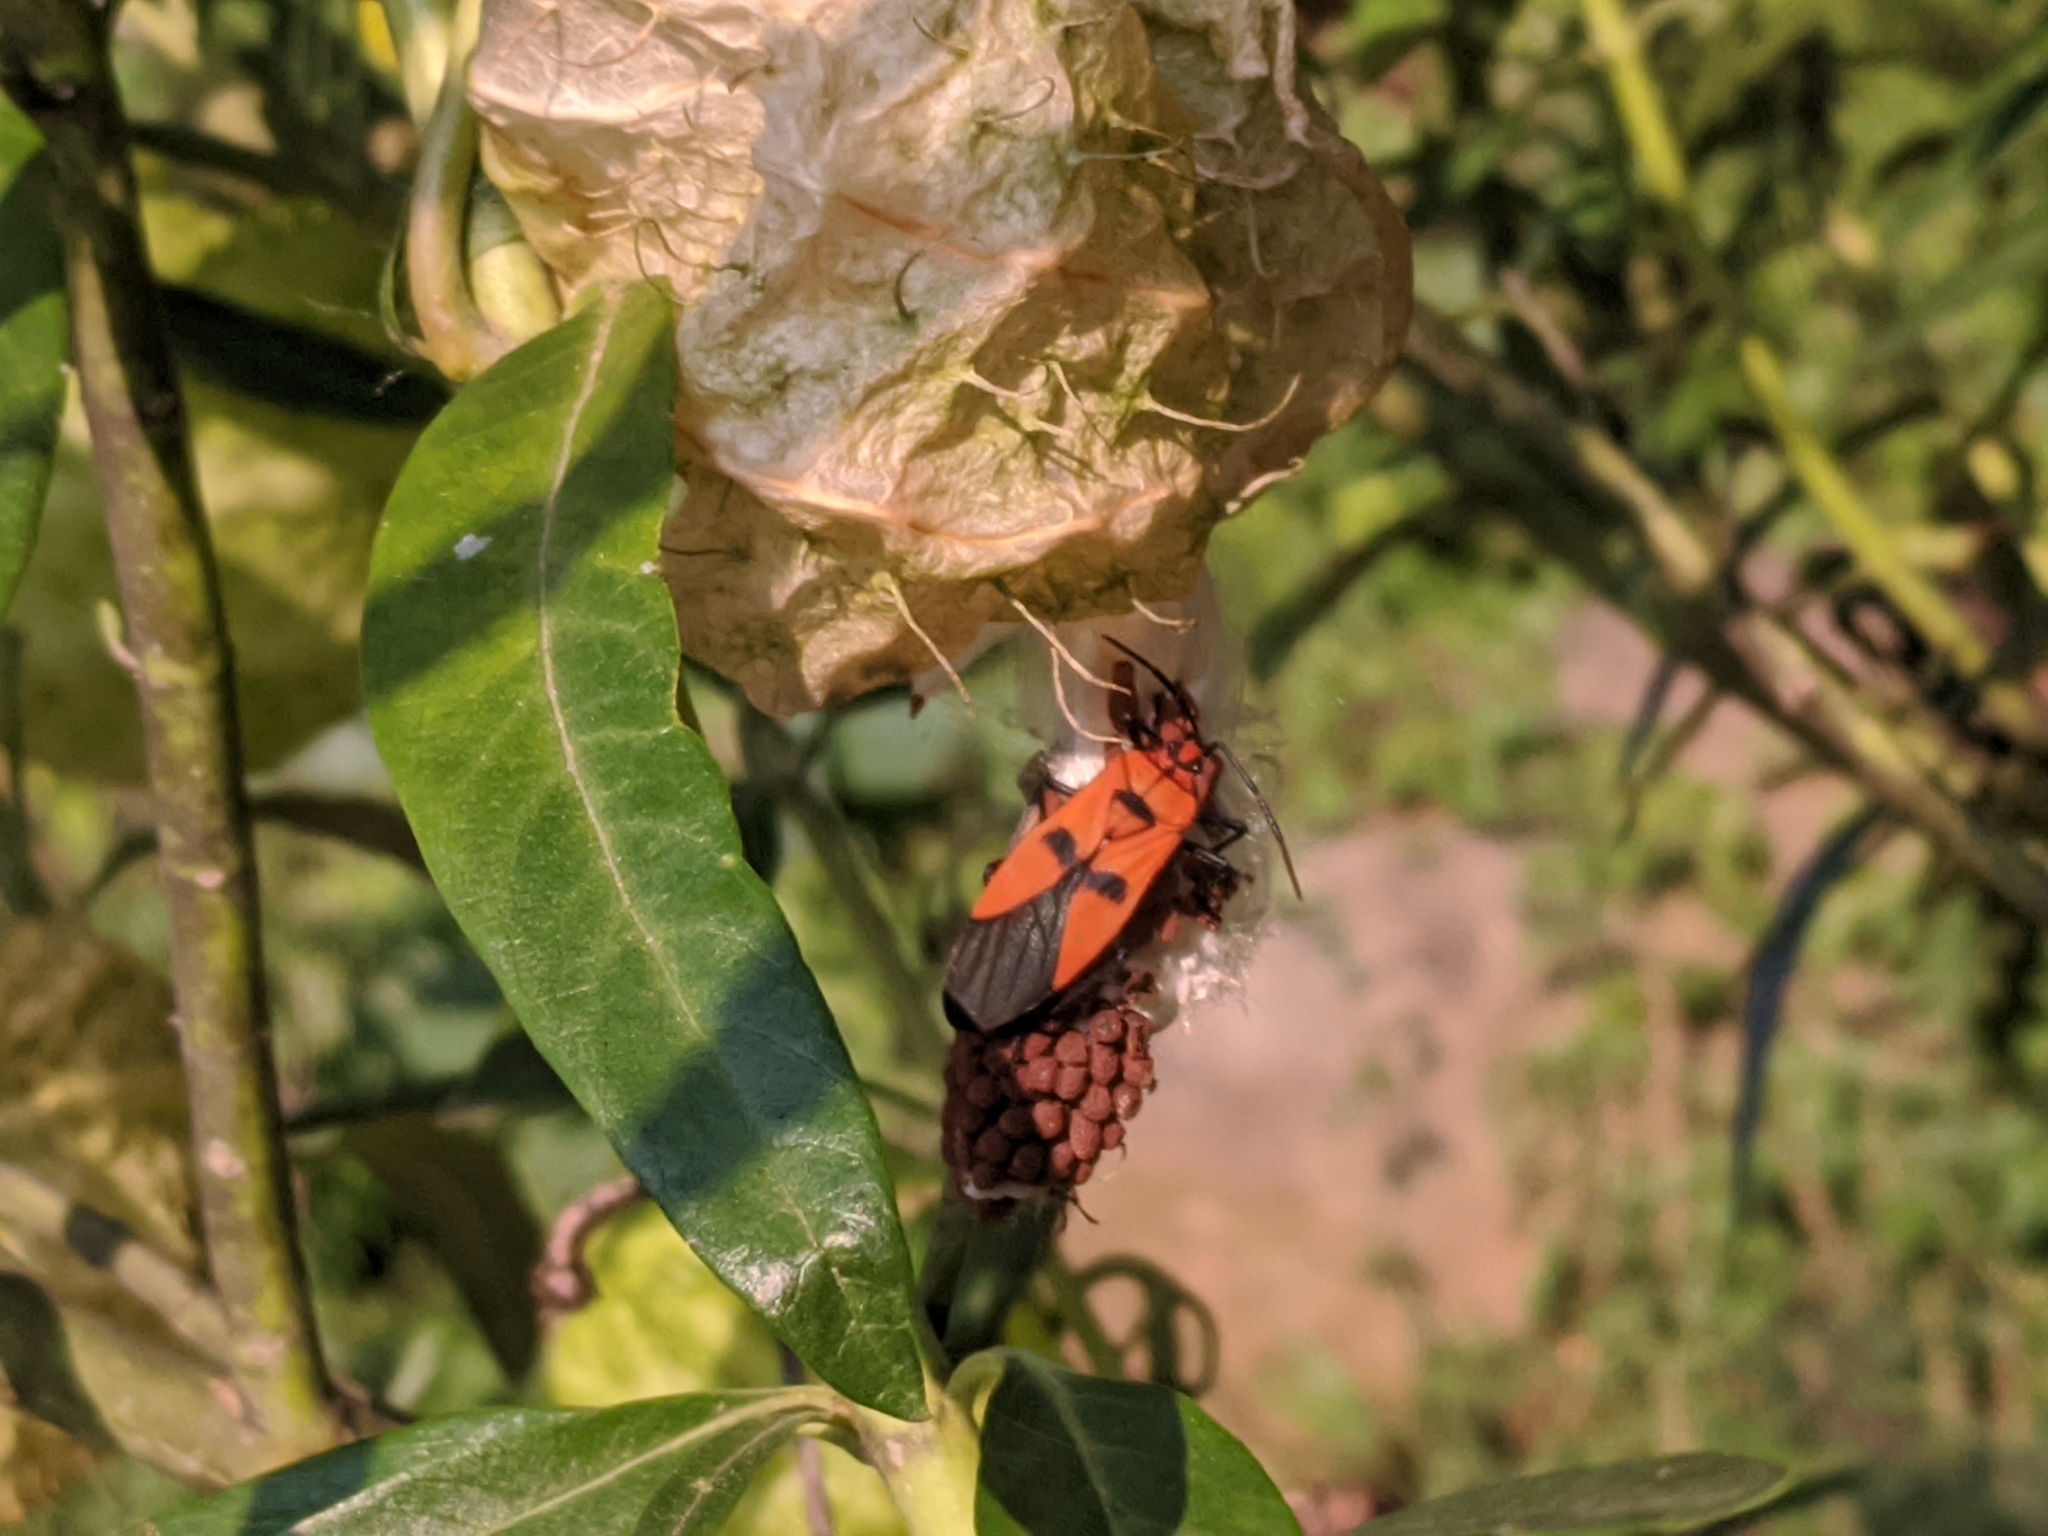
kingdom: Animalia
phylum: Arthropoda
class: Insecta
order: Hemiptera
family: Lygaeidae
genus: Oncopeltus
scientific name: Oncopeltus varicolor
